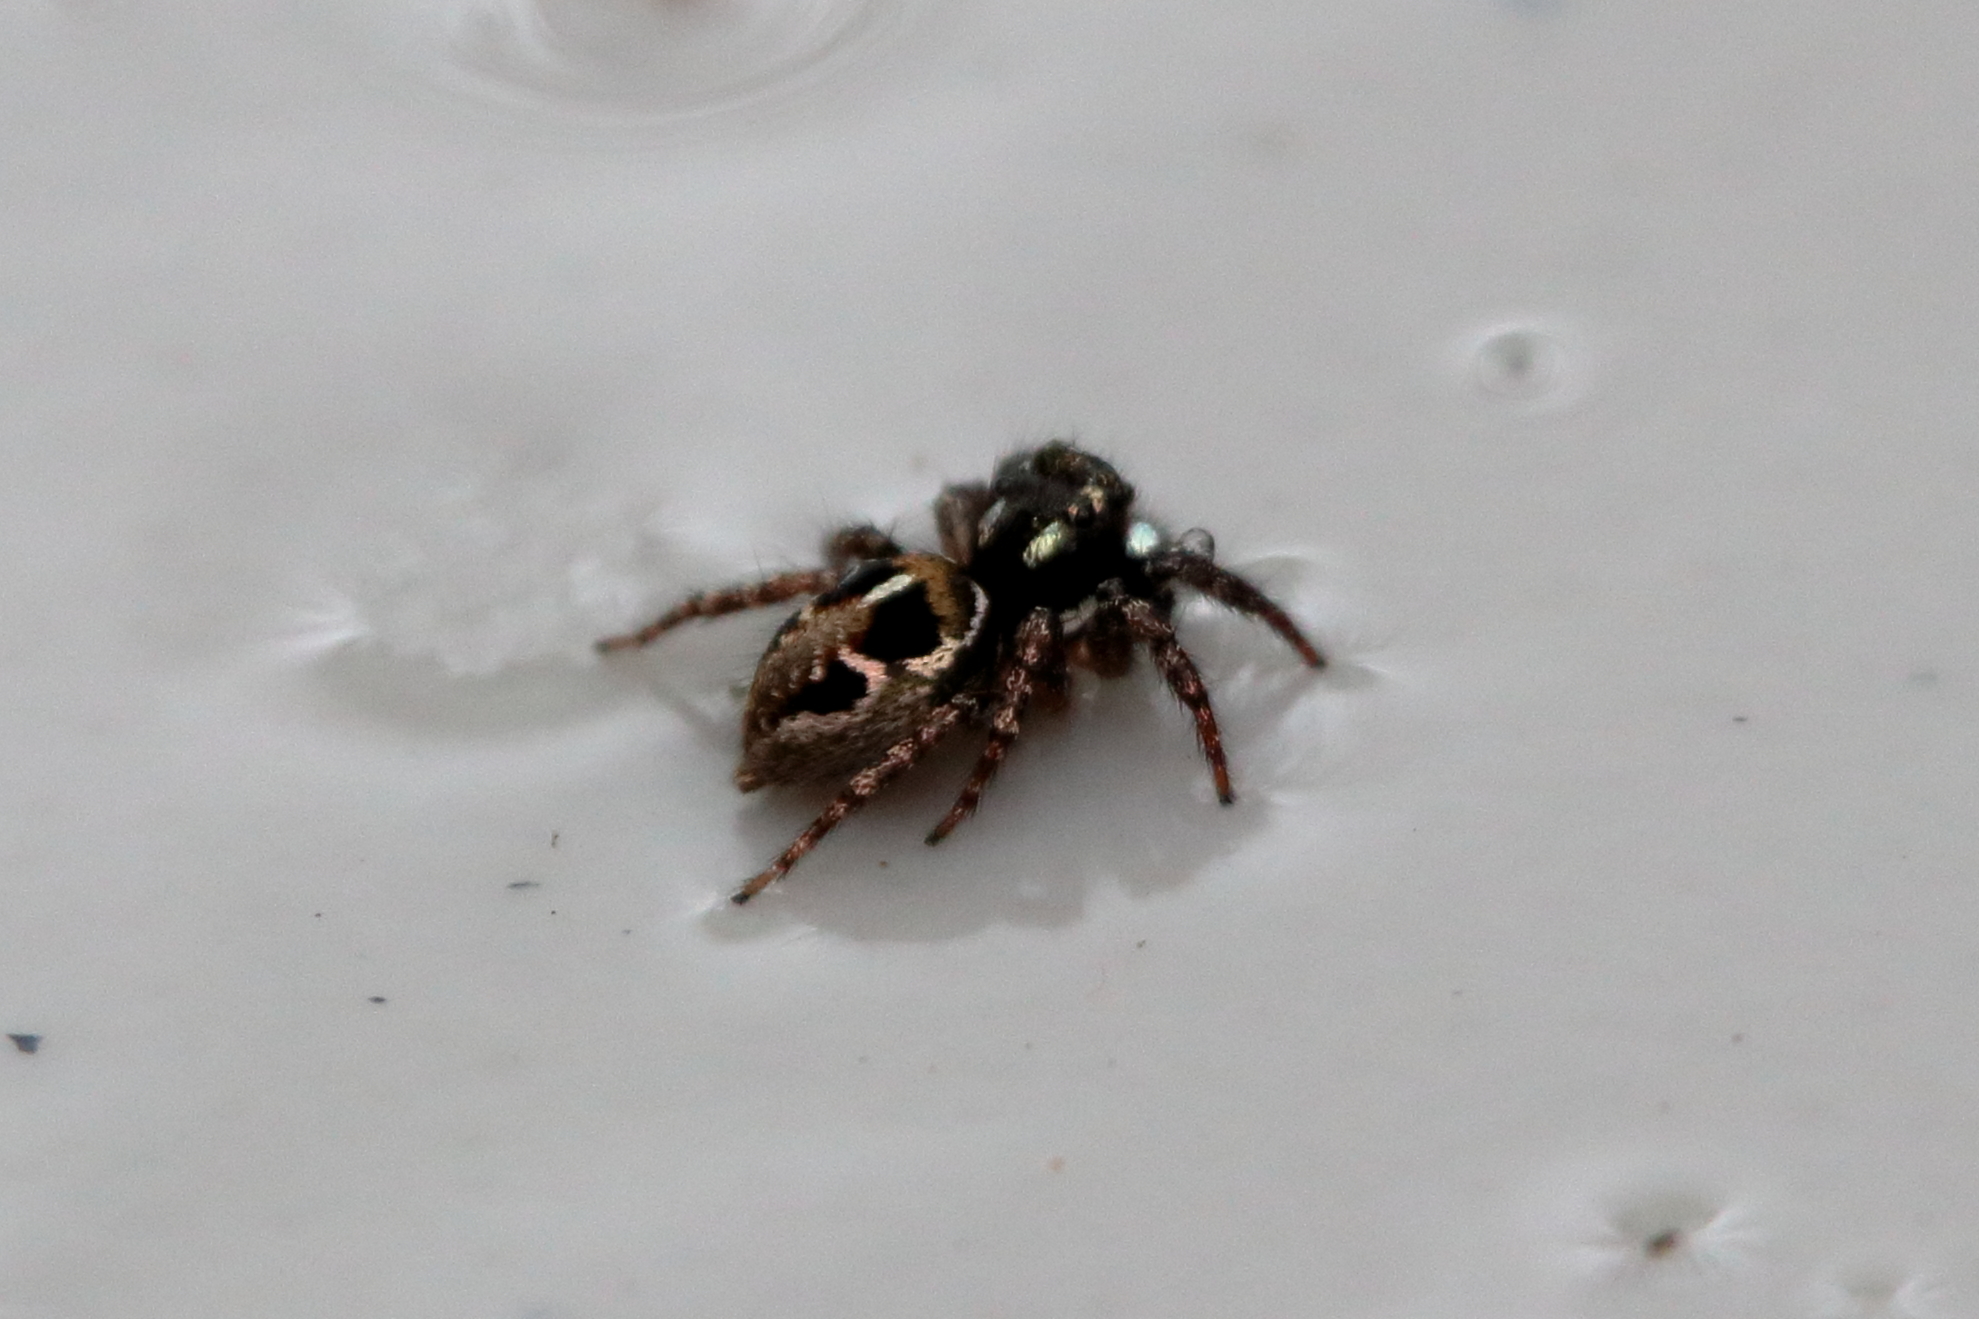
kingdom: Animalia
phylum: Arthropoda
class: Arachnida
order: Araneae
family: Salticidae
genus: Anasaitis
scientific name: Anasaitis canosa
